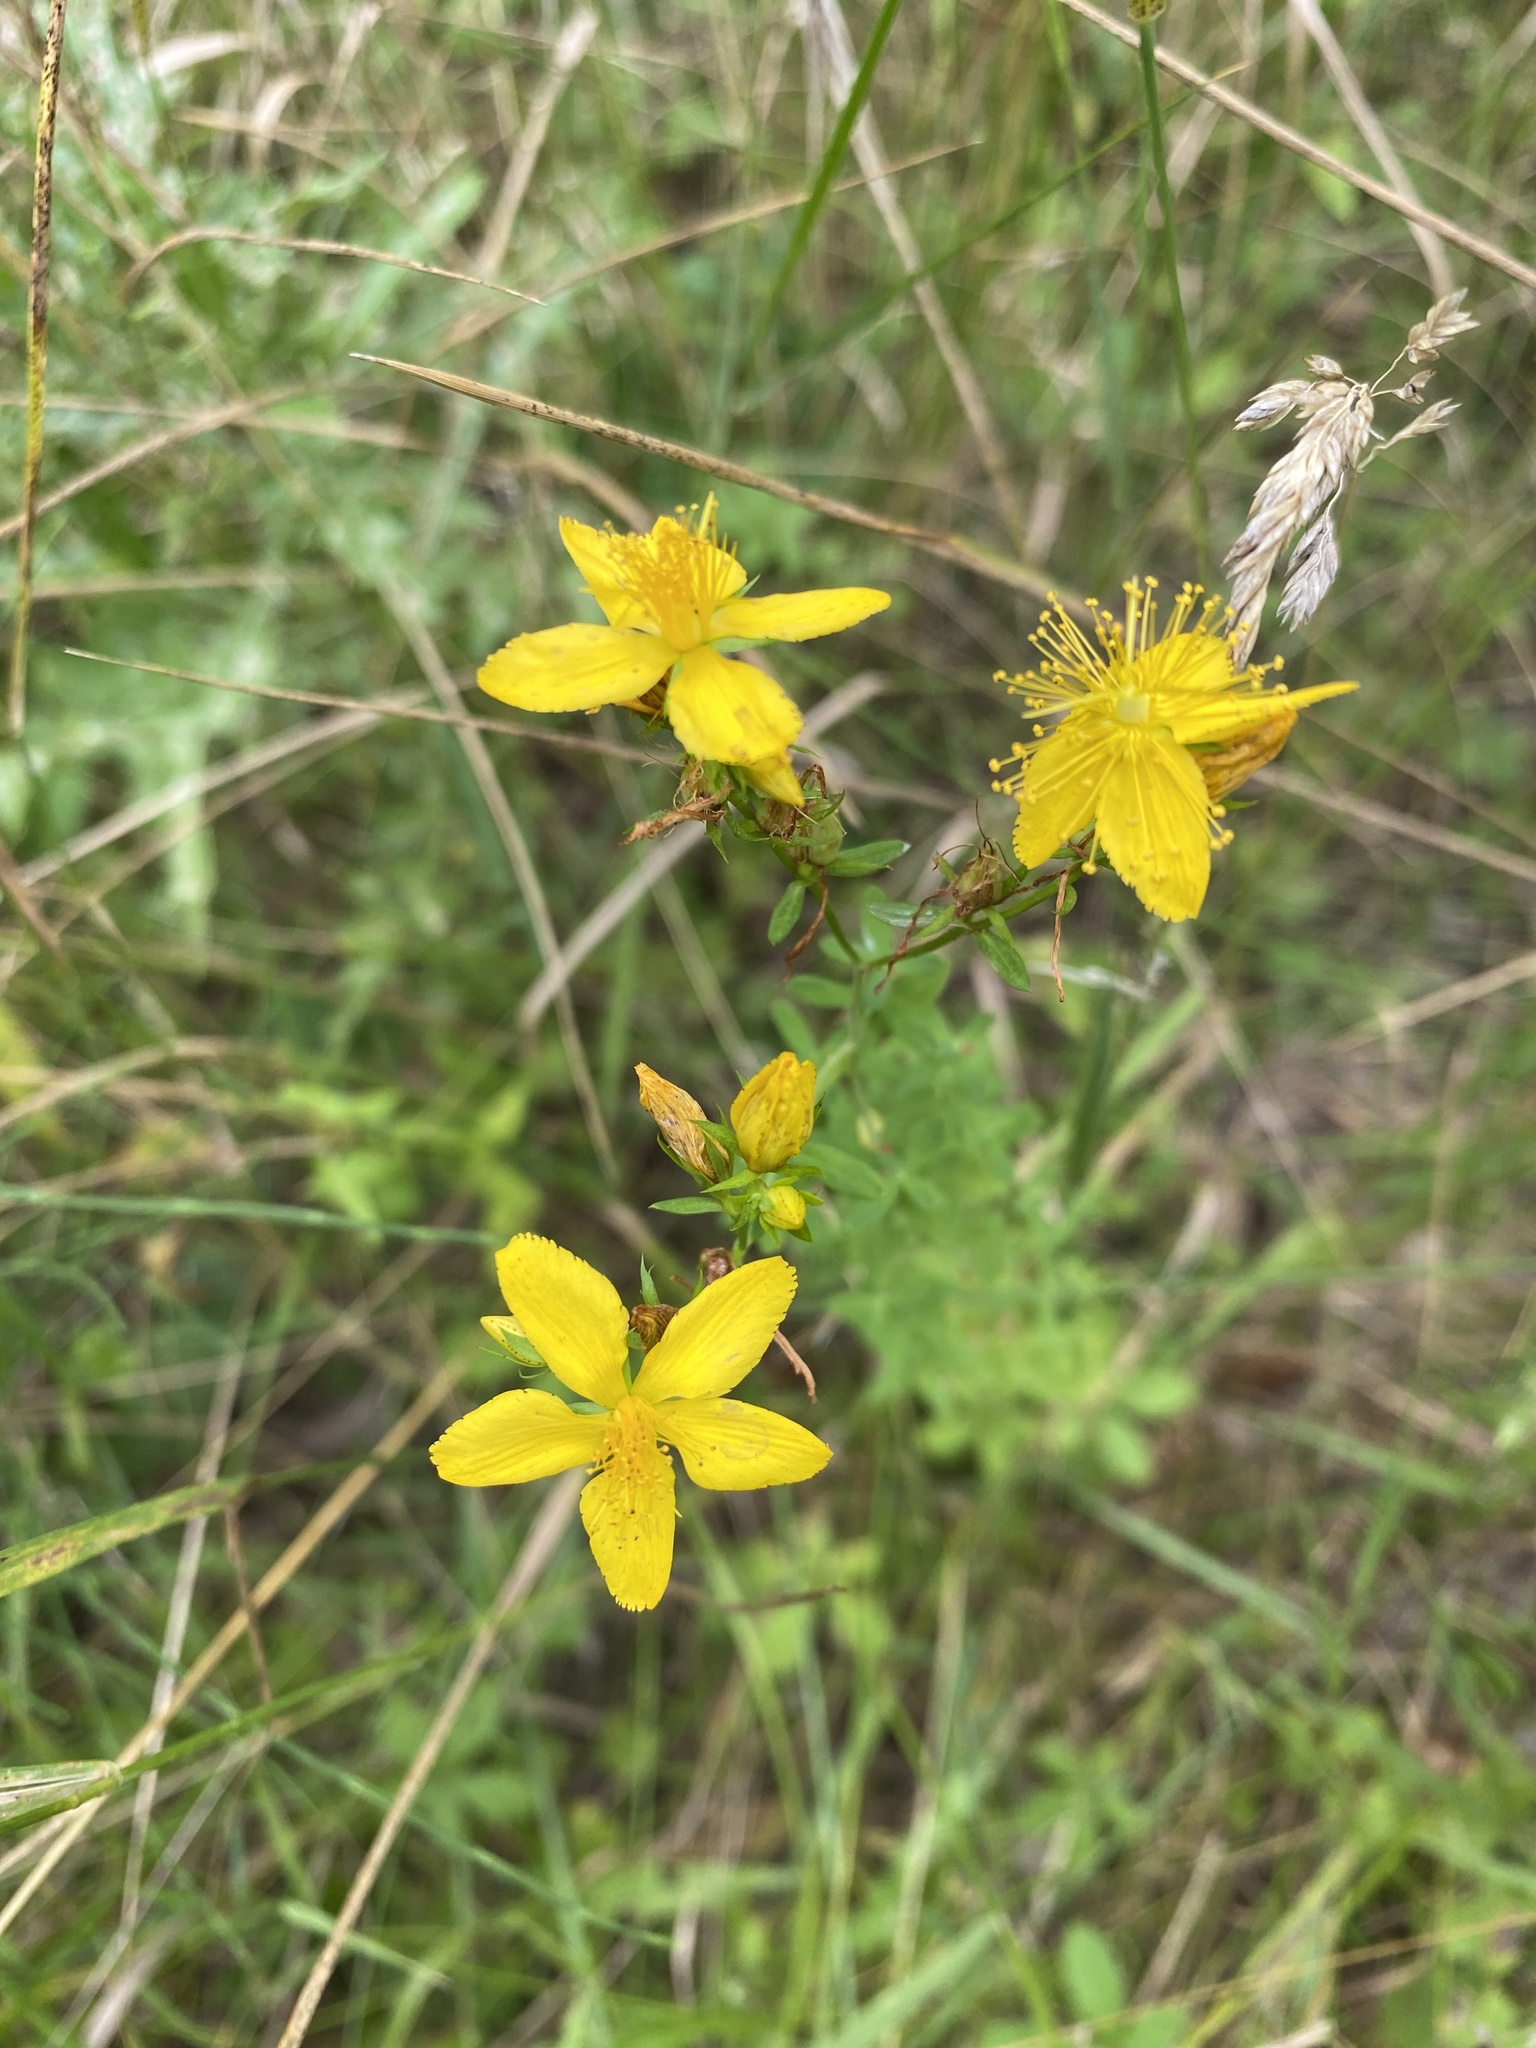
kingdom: Plantae
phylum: Tracheophyta
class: Magnoliopsida
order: Malpighiales
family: Hypericaceae
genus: Hypericum
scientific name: Hypericum desetangsii
